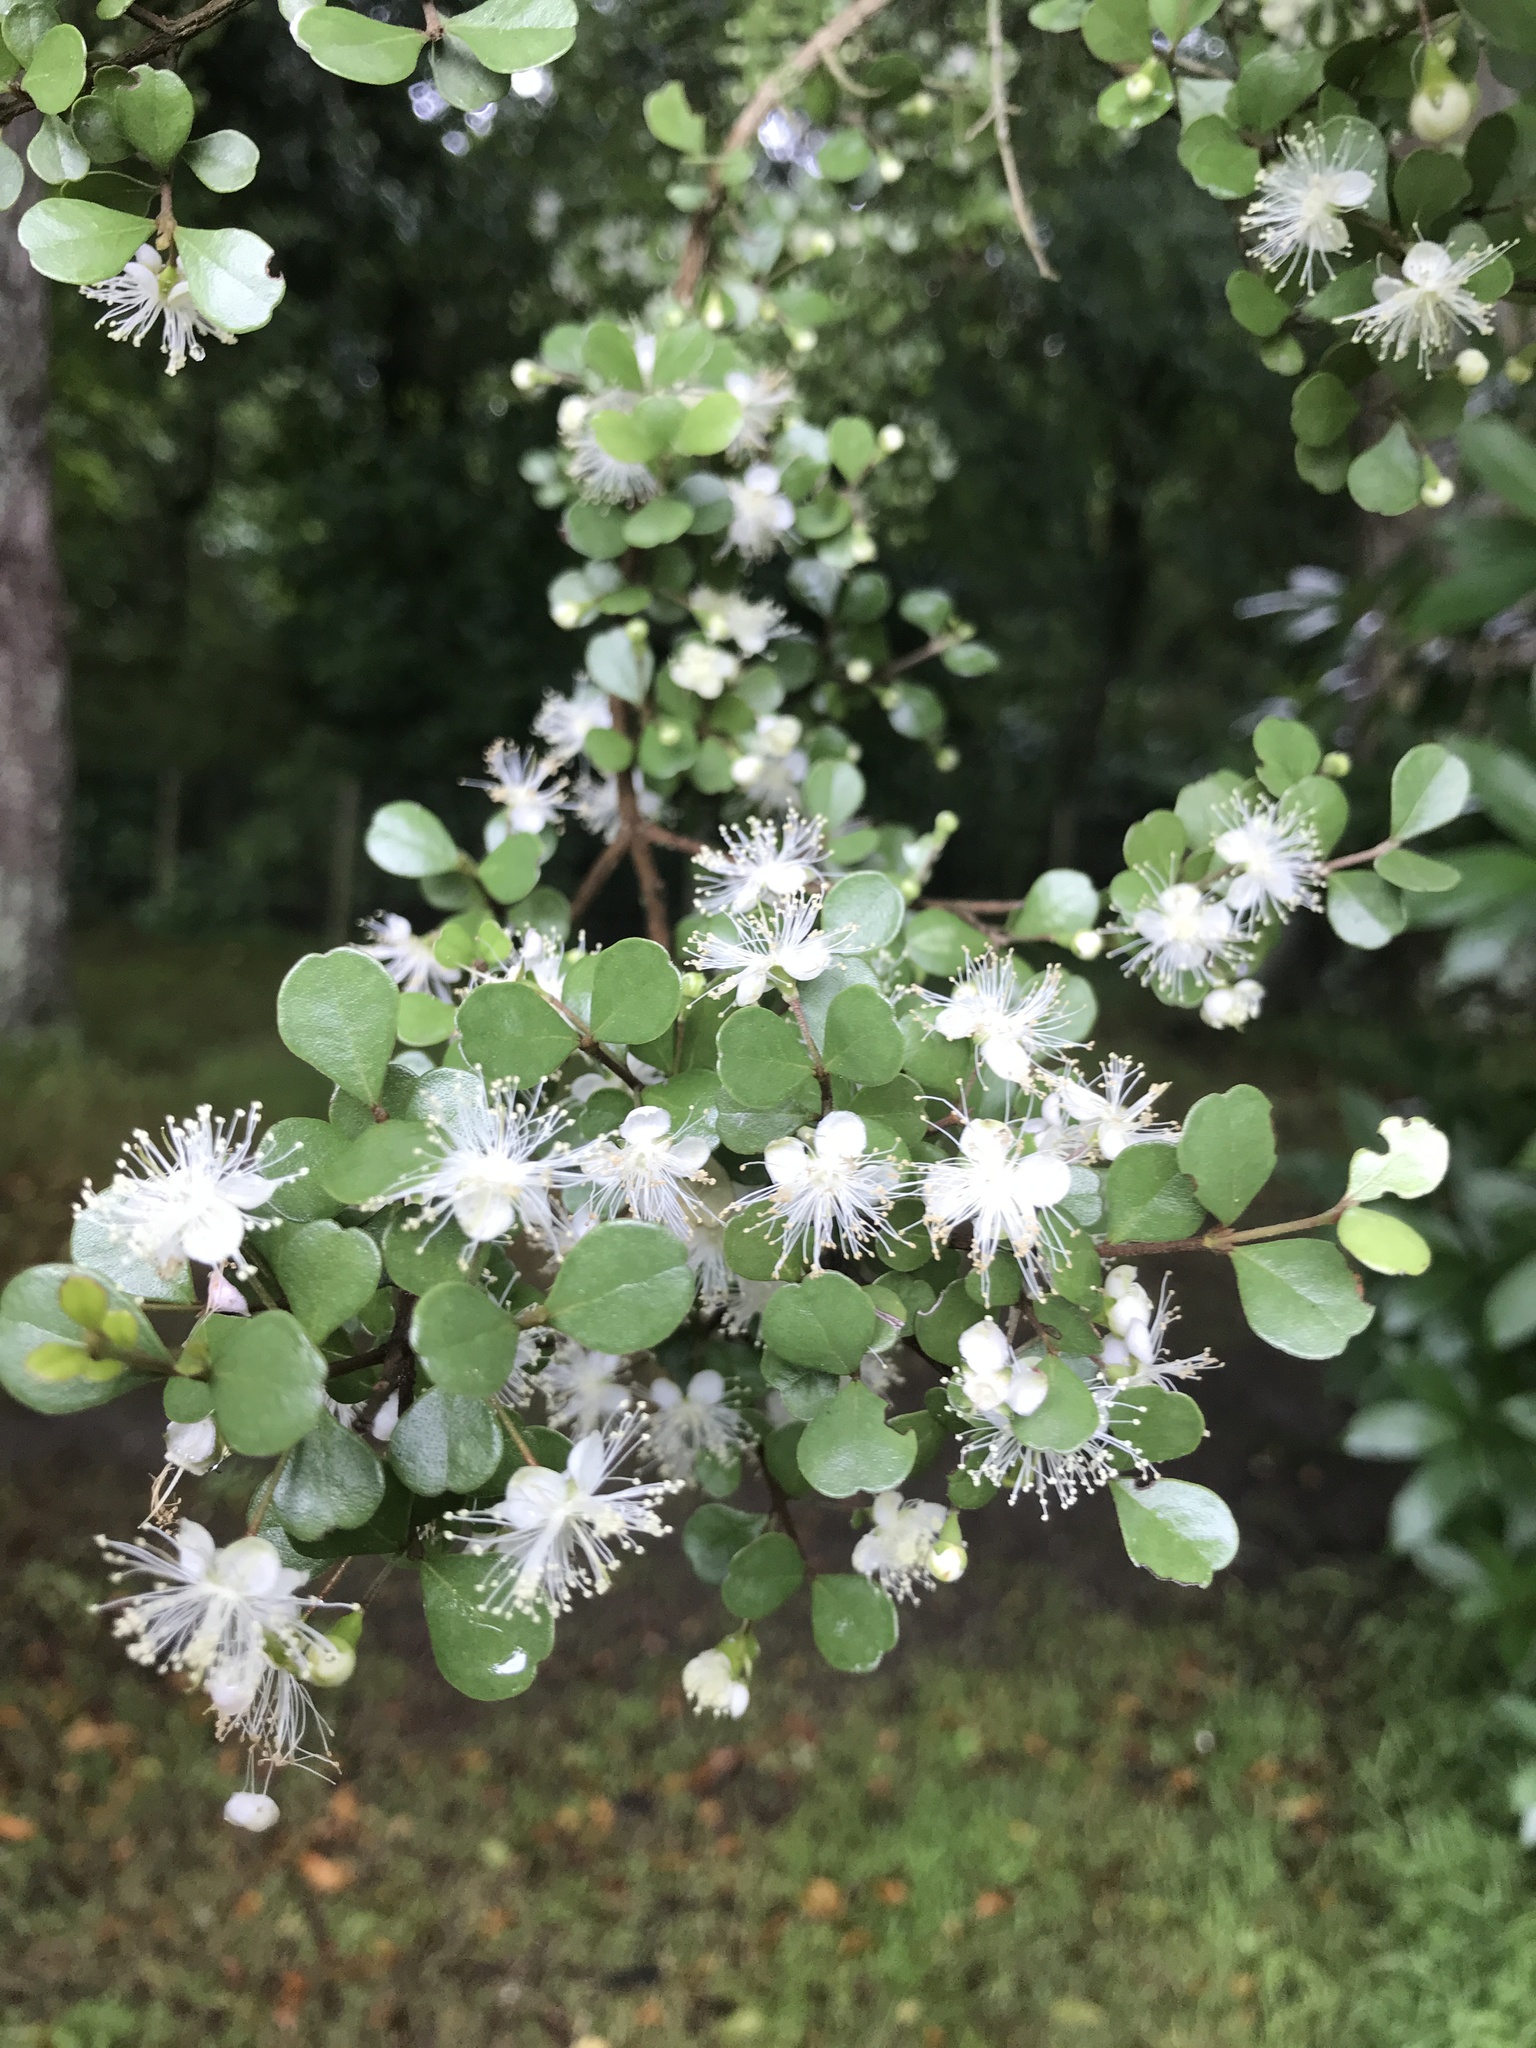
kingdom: Plantae
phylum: Tracheophyta
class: Magnoliopsida
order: Myrtales
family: Myrtaceae
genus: Lophomyrtus
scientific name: Lophomyrtus obcordata
